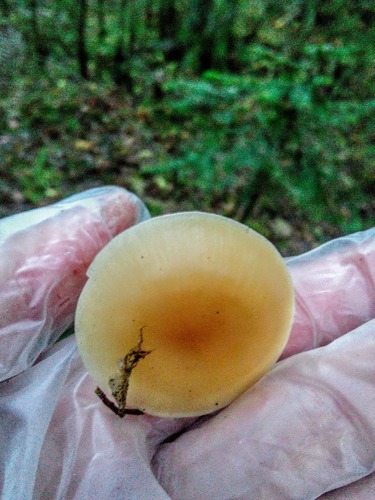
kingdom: Fungi
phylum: Basidiomycota
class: Agaricomycetes
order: Agaricales
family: Tricholomataceae
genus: Clitocybe
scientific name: Clitocybe
